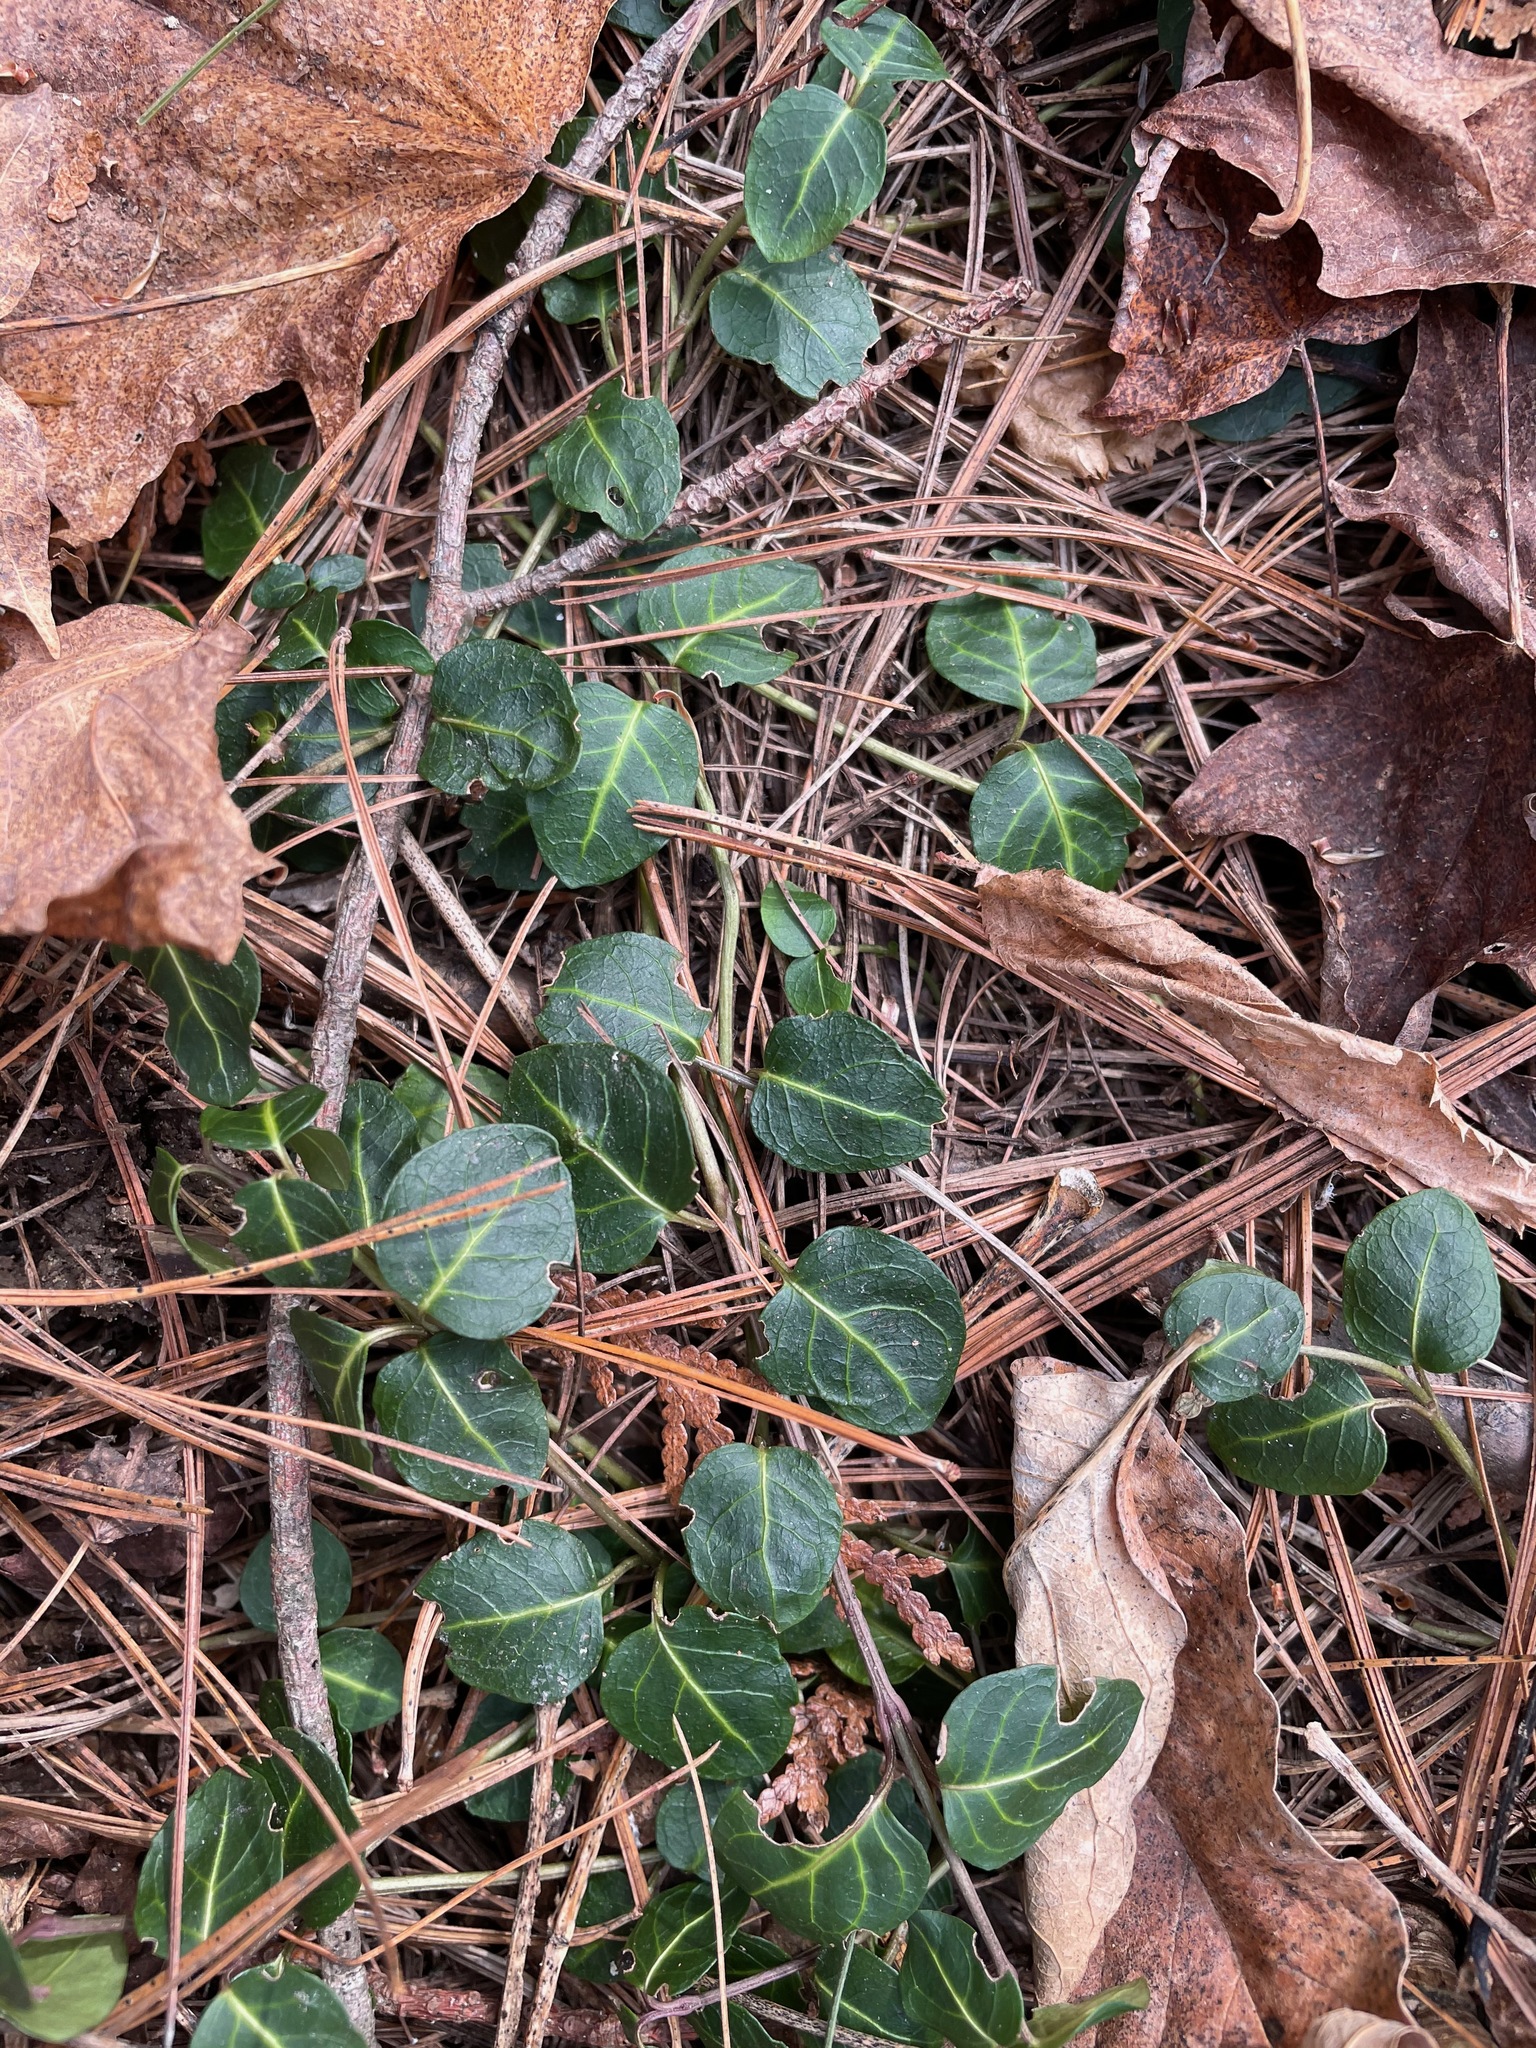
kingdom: Plantae
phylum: Tracheophyta
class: Magnoliopsida
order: Gentianales
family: Rubiaceae
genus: Mitchella
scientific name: Mitchella repens
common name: Partridge-berry
